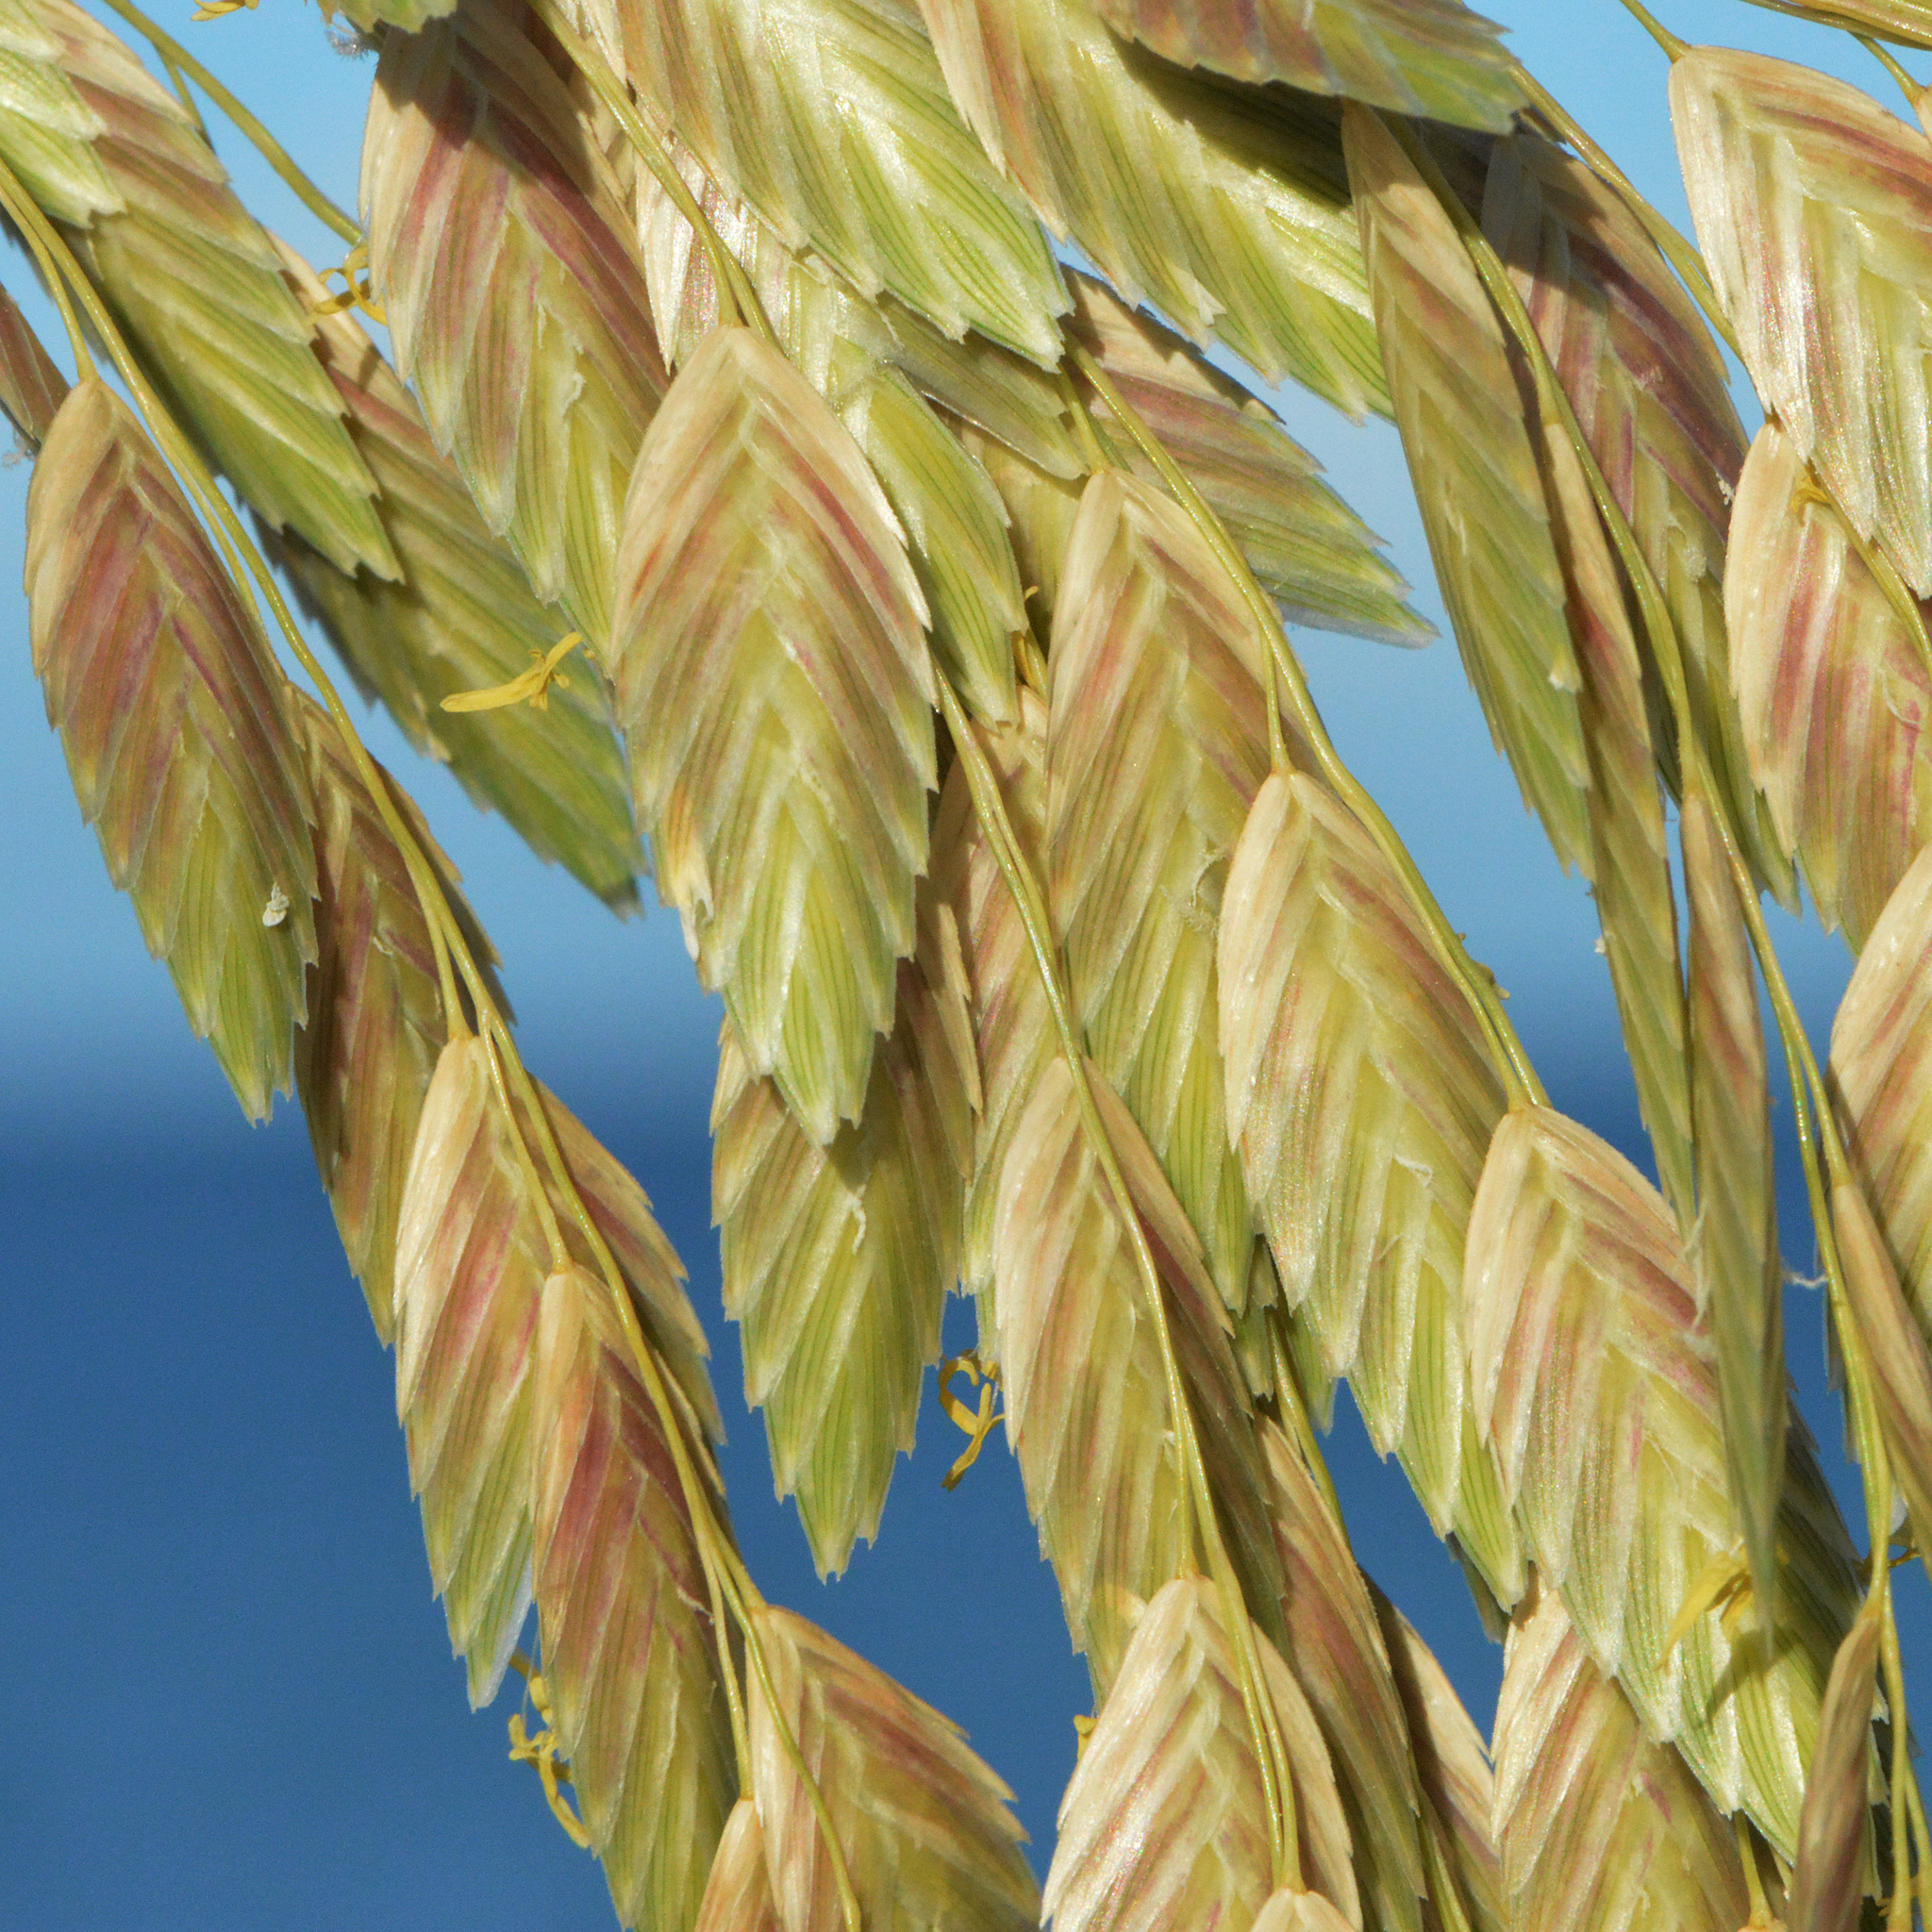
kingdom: Plantae
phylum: Tracheophyta
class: Liliopsida
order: Poales
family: Poaceae
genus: Uniola
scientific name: Uniola paniculata
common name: Seaside-oats
